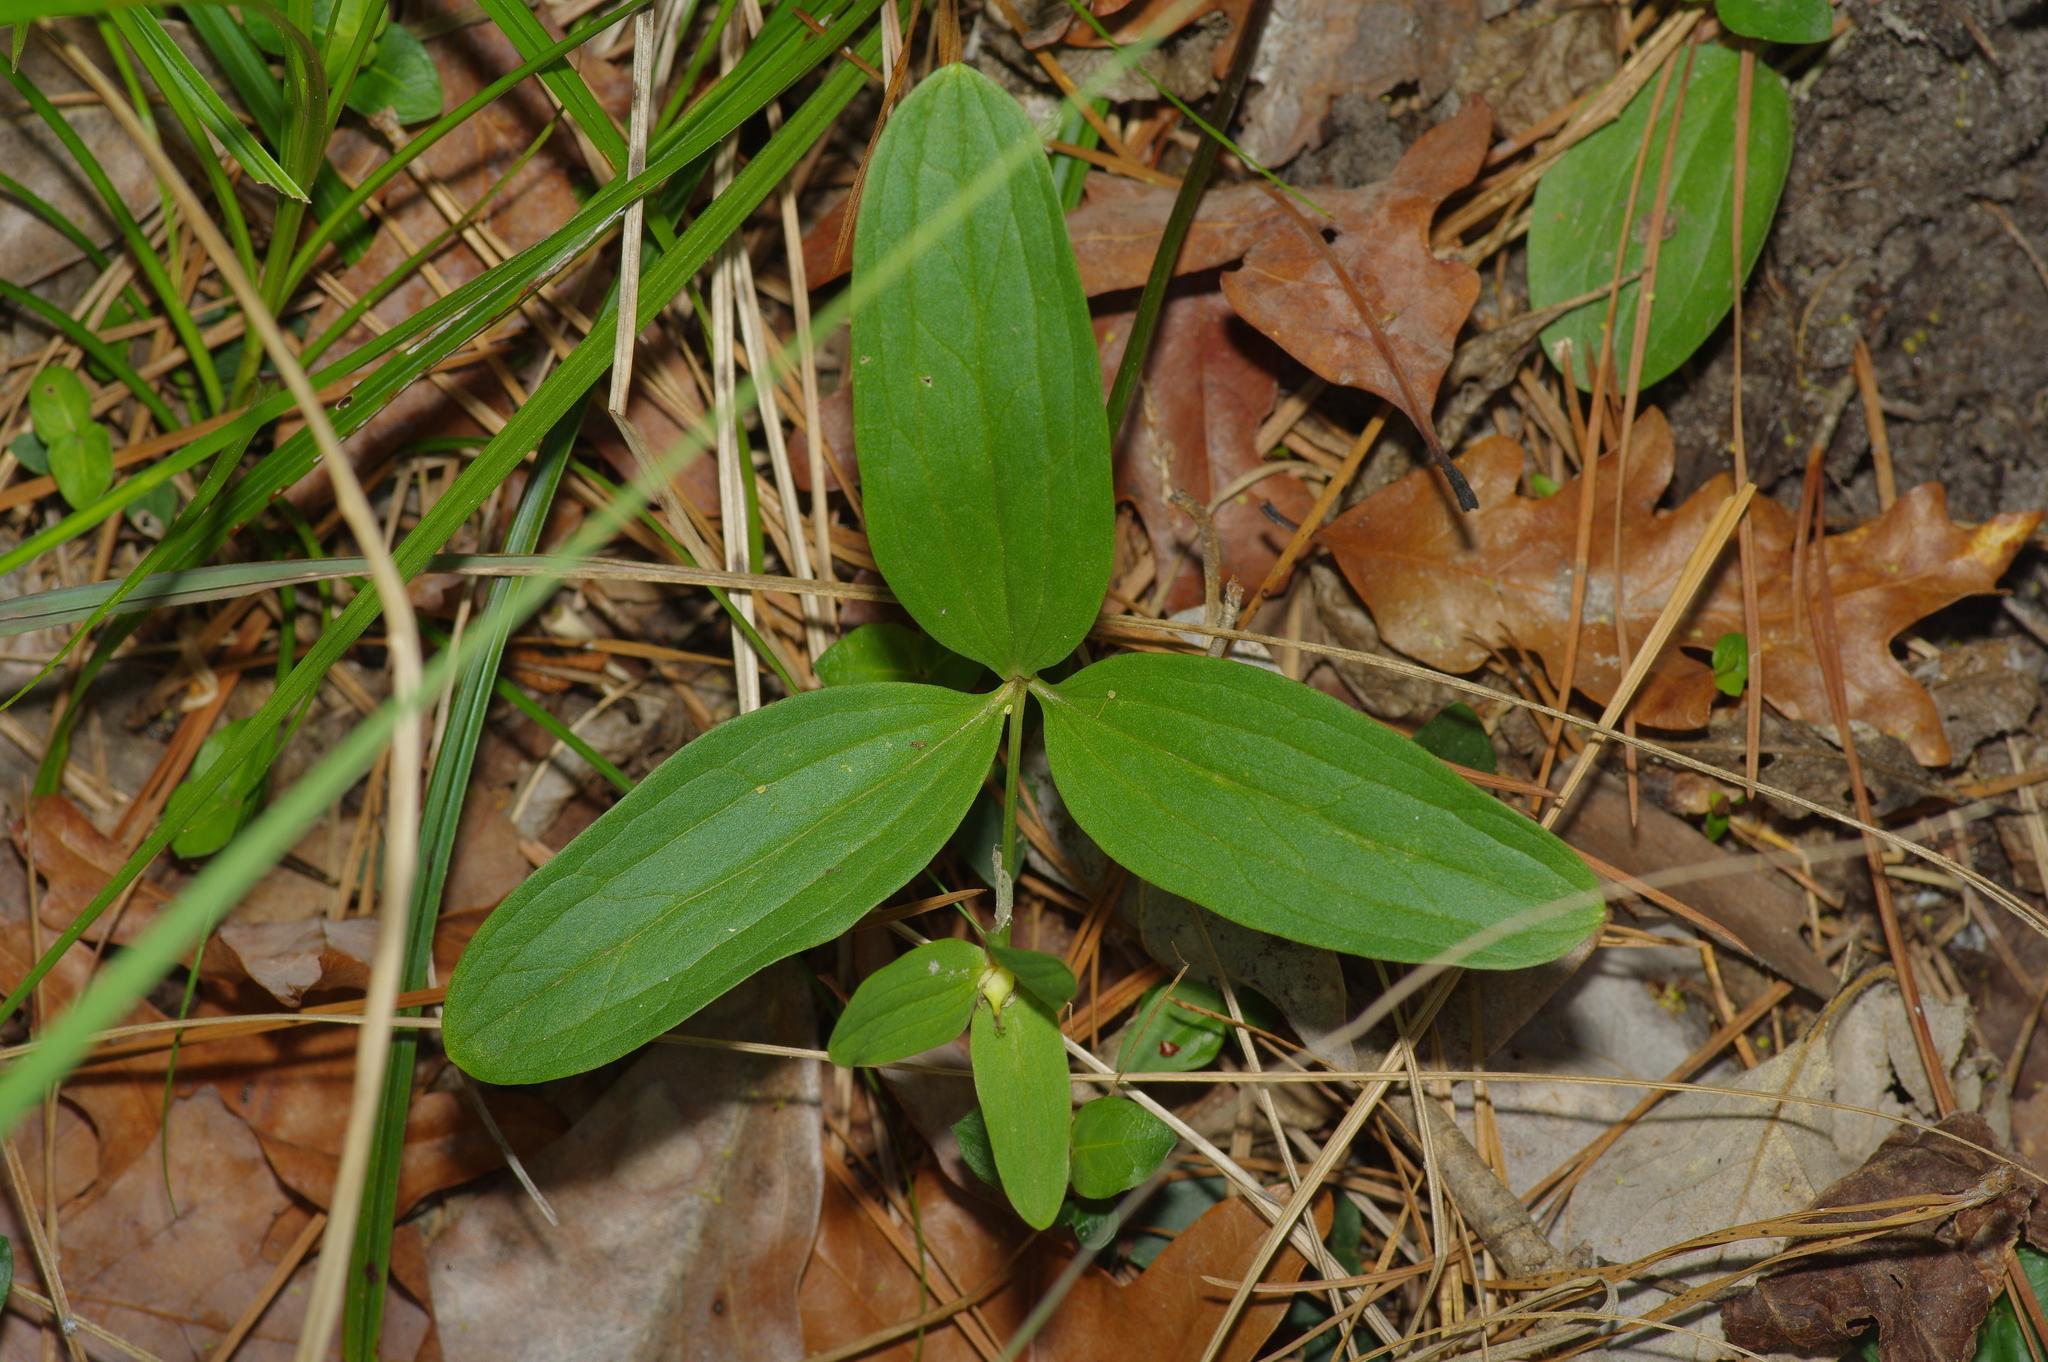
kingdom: Plantae
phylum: Tracheophyta
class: Liliopsida
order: Liliales
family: Melanthiaceae
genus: Trillium
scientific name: Trillium pusillum
